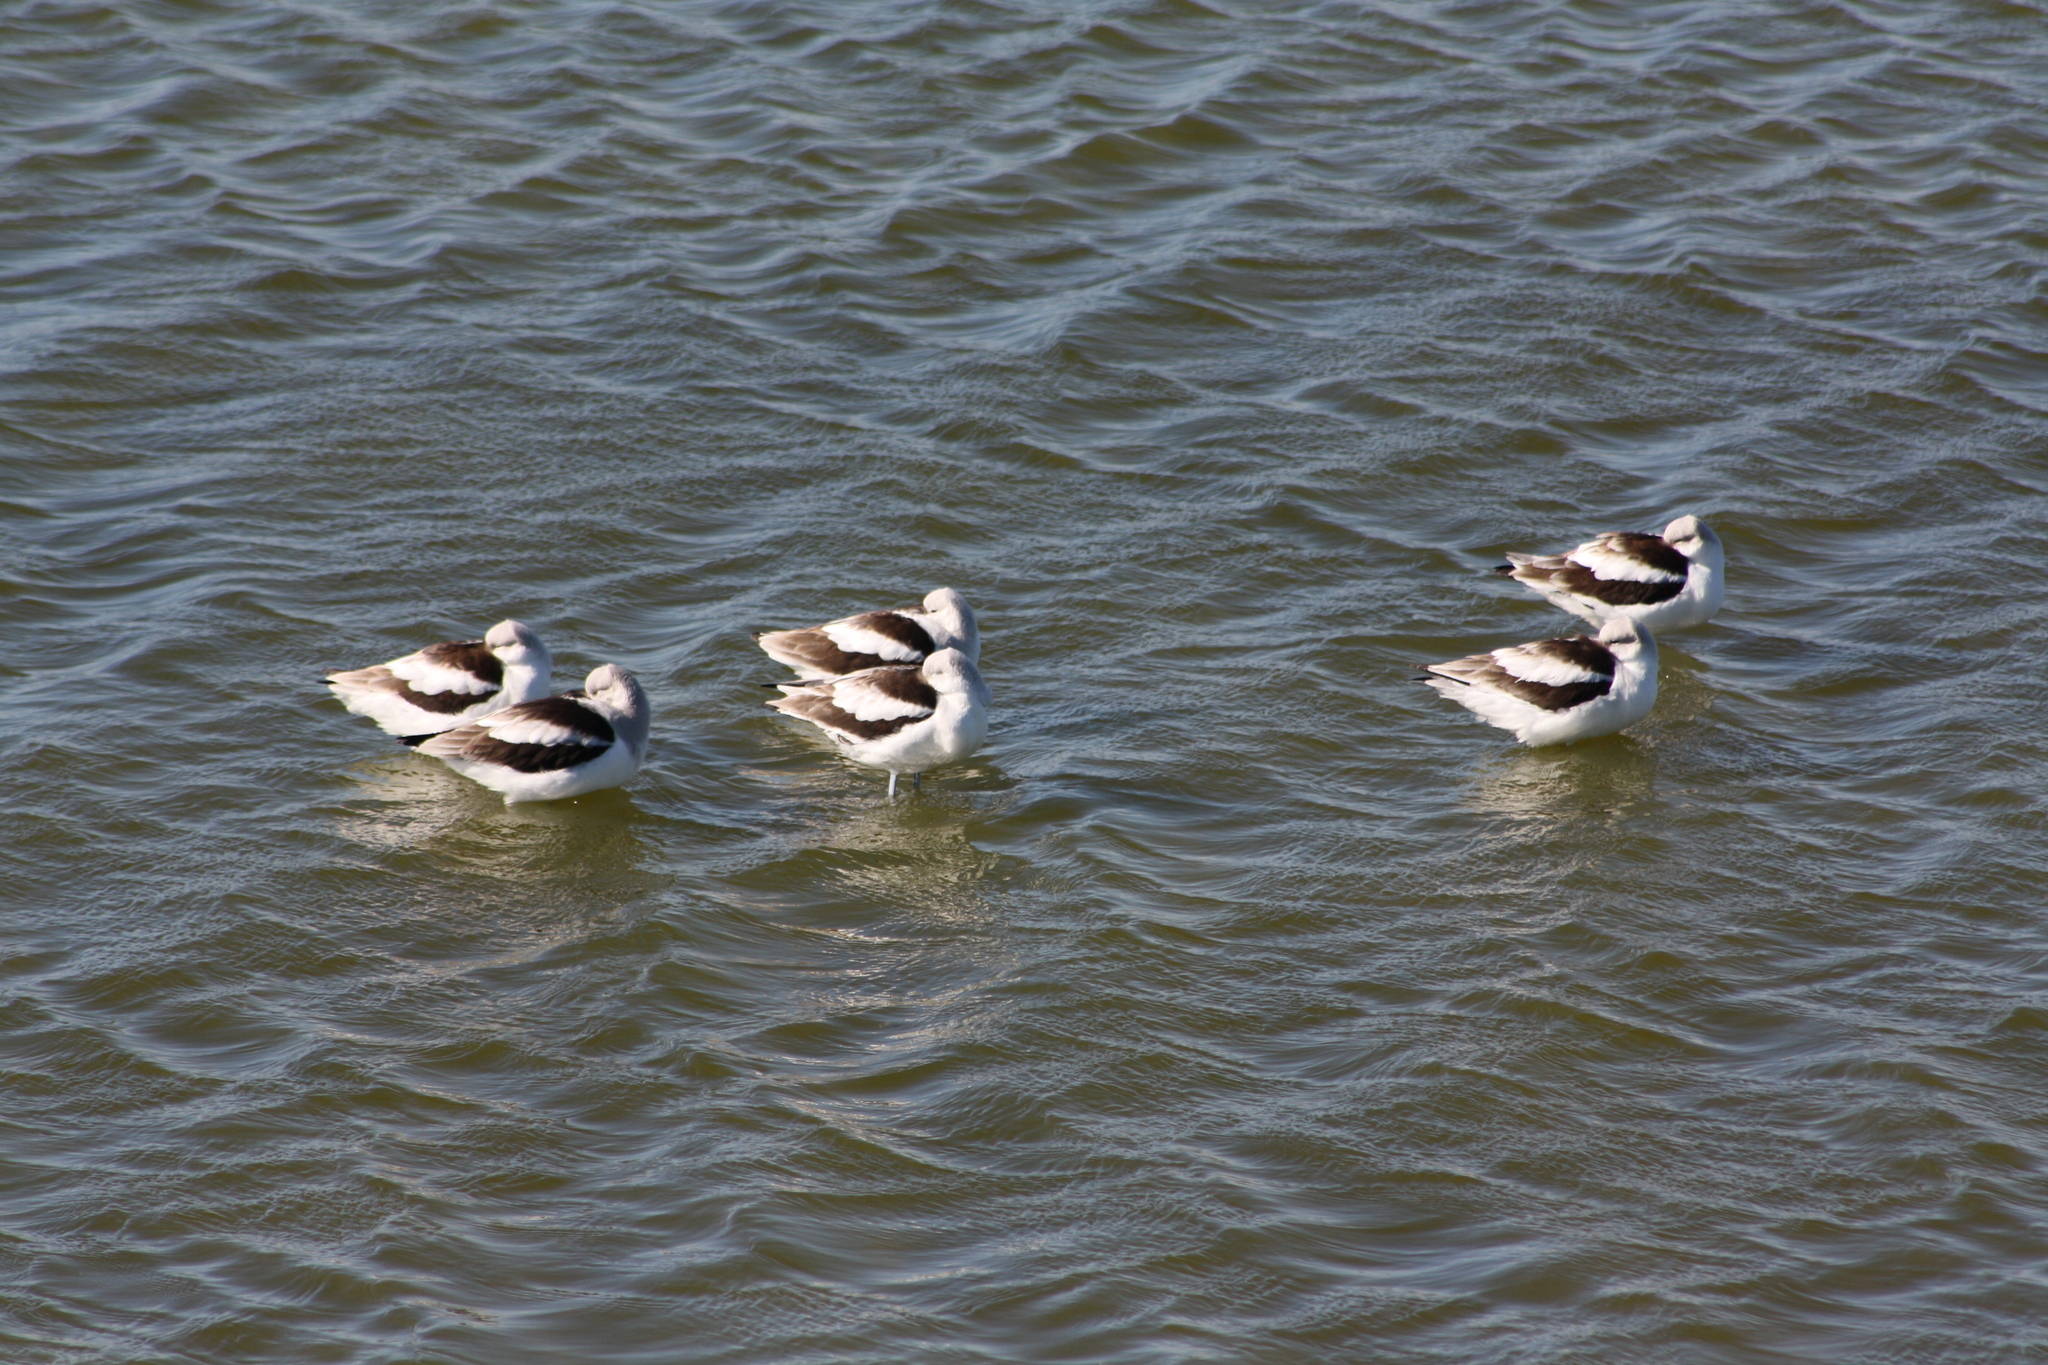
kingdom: Animalia
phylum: Chordata
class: Aves
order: Charadriiformes
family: Recurvirostridae
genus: Recurvirostra
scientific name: Recurvirostra americana
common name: American avocet
